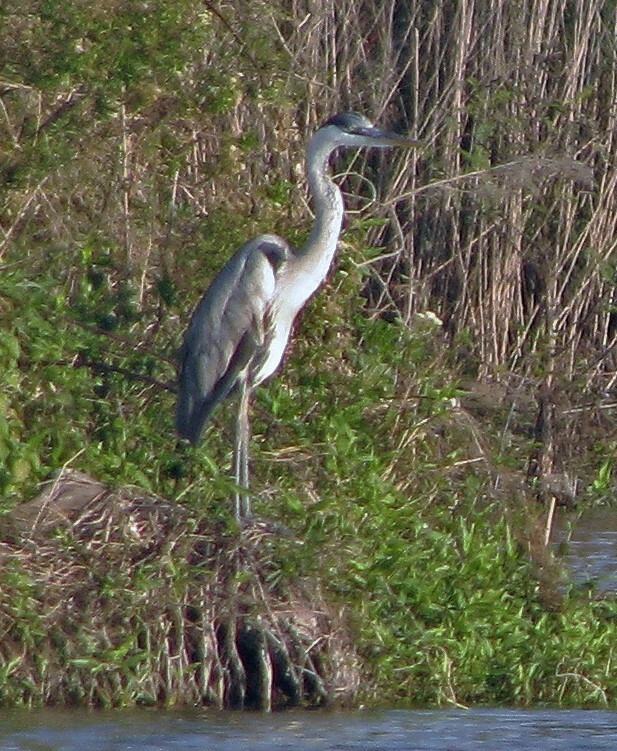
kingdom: Animalia
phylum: Chordata
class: Aves
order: Pelecaniformes
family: Ardeidae
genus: Ardea
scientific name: Ardea cocoi
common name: Cocoi heron
